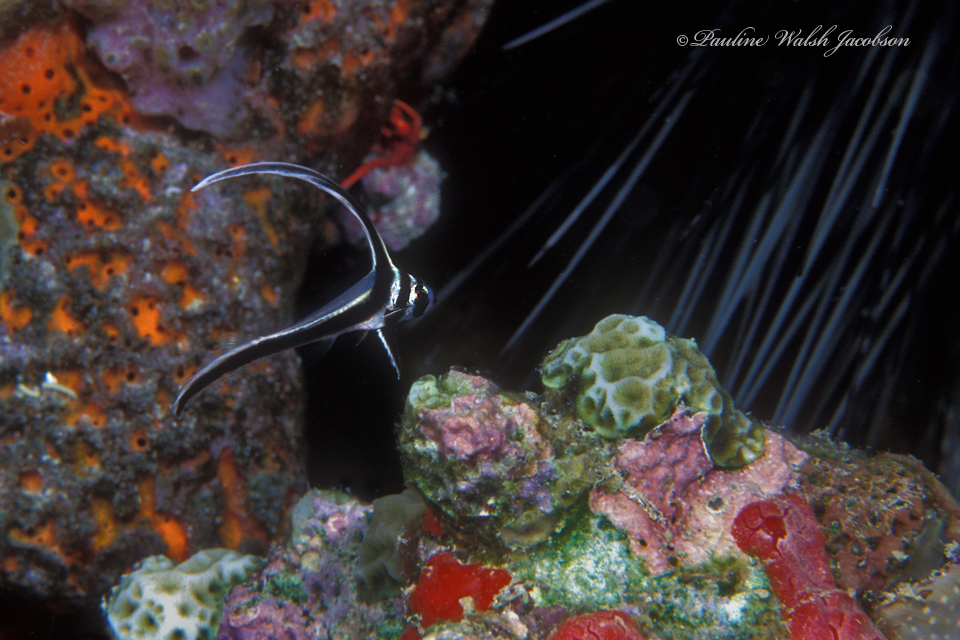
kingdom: Animalia
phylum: Chordata
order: Perciformes
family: Sciaenidae
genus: Equetus
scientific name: Equetus punctatus
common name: Spotted drum
